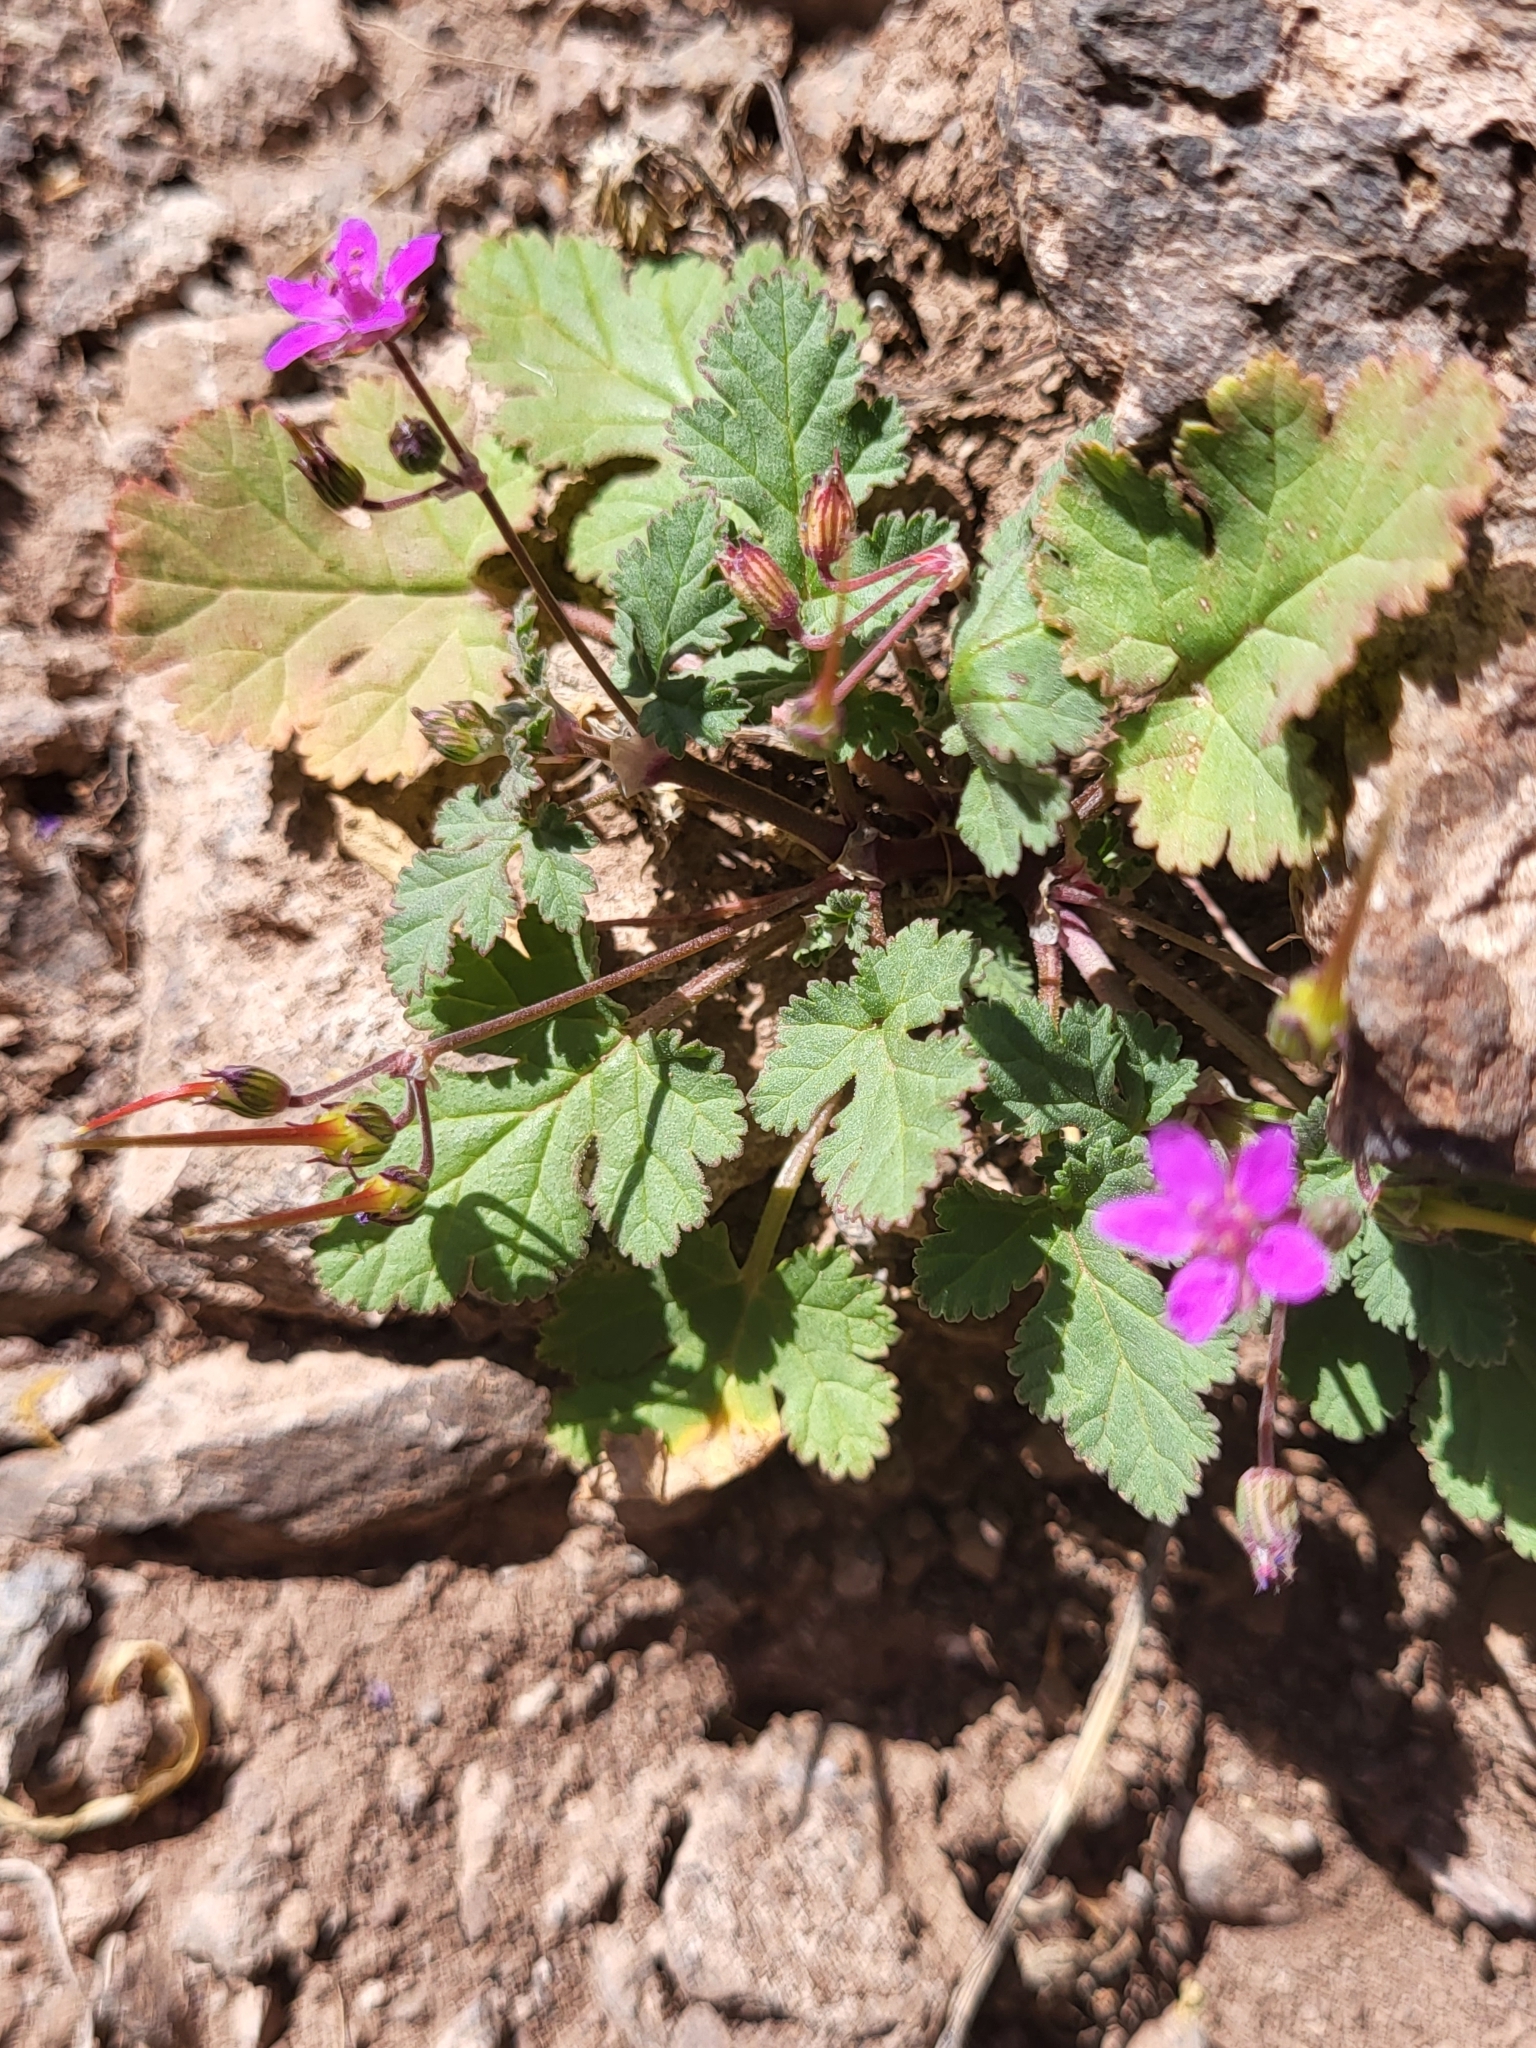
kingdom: Plantae
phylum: Tracheophyta
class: Magnoliopsida
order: Geraniales
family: Geraniaceae
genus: Erodium
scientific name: Erodium chium
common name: Three-lobed stork's-bill
